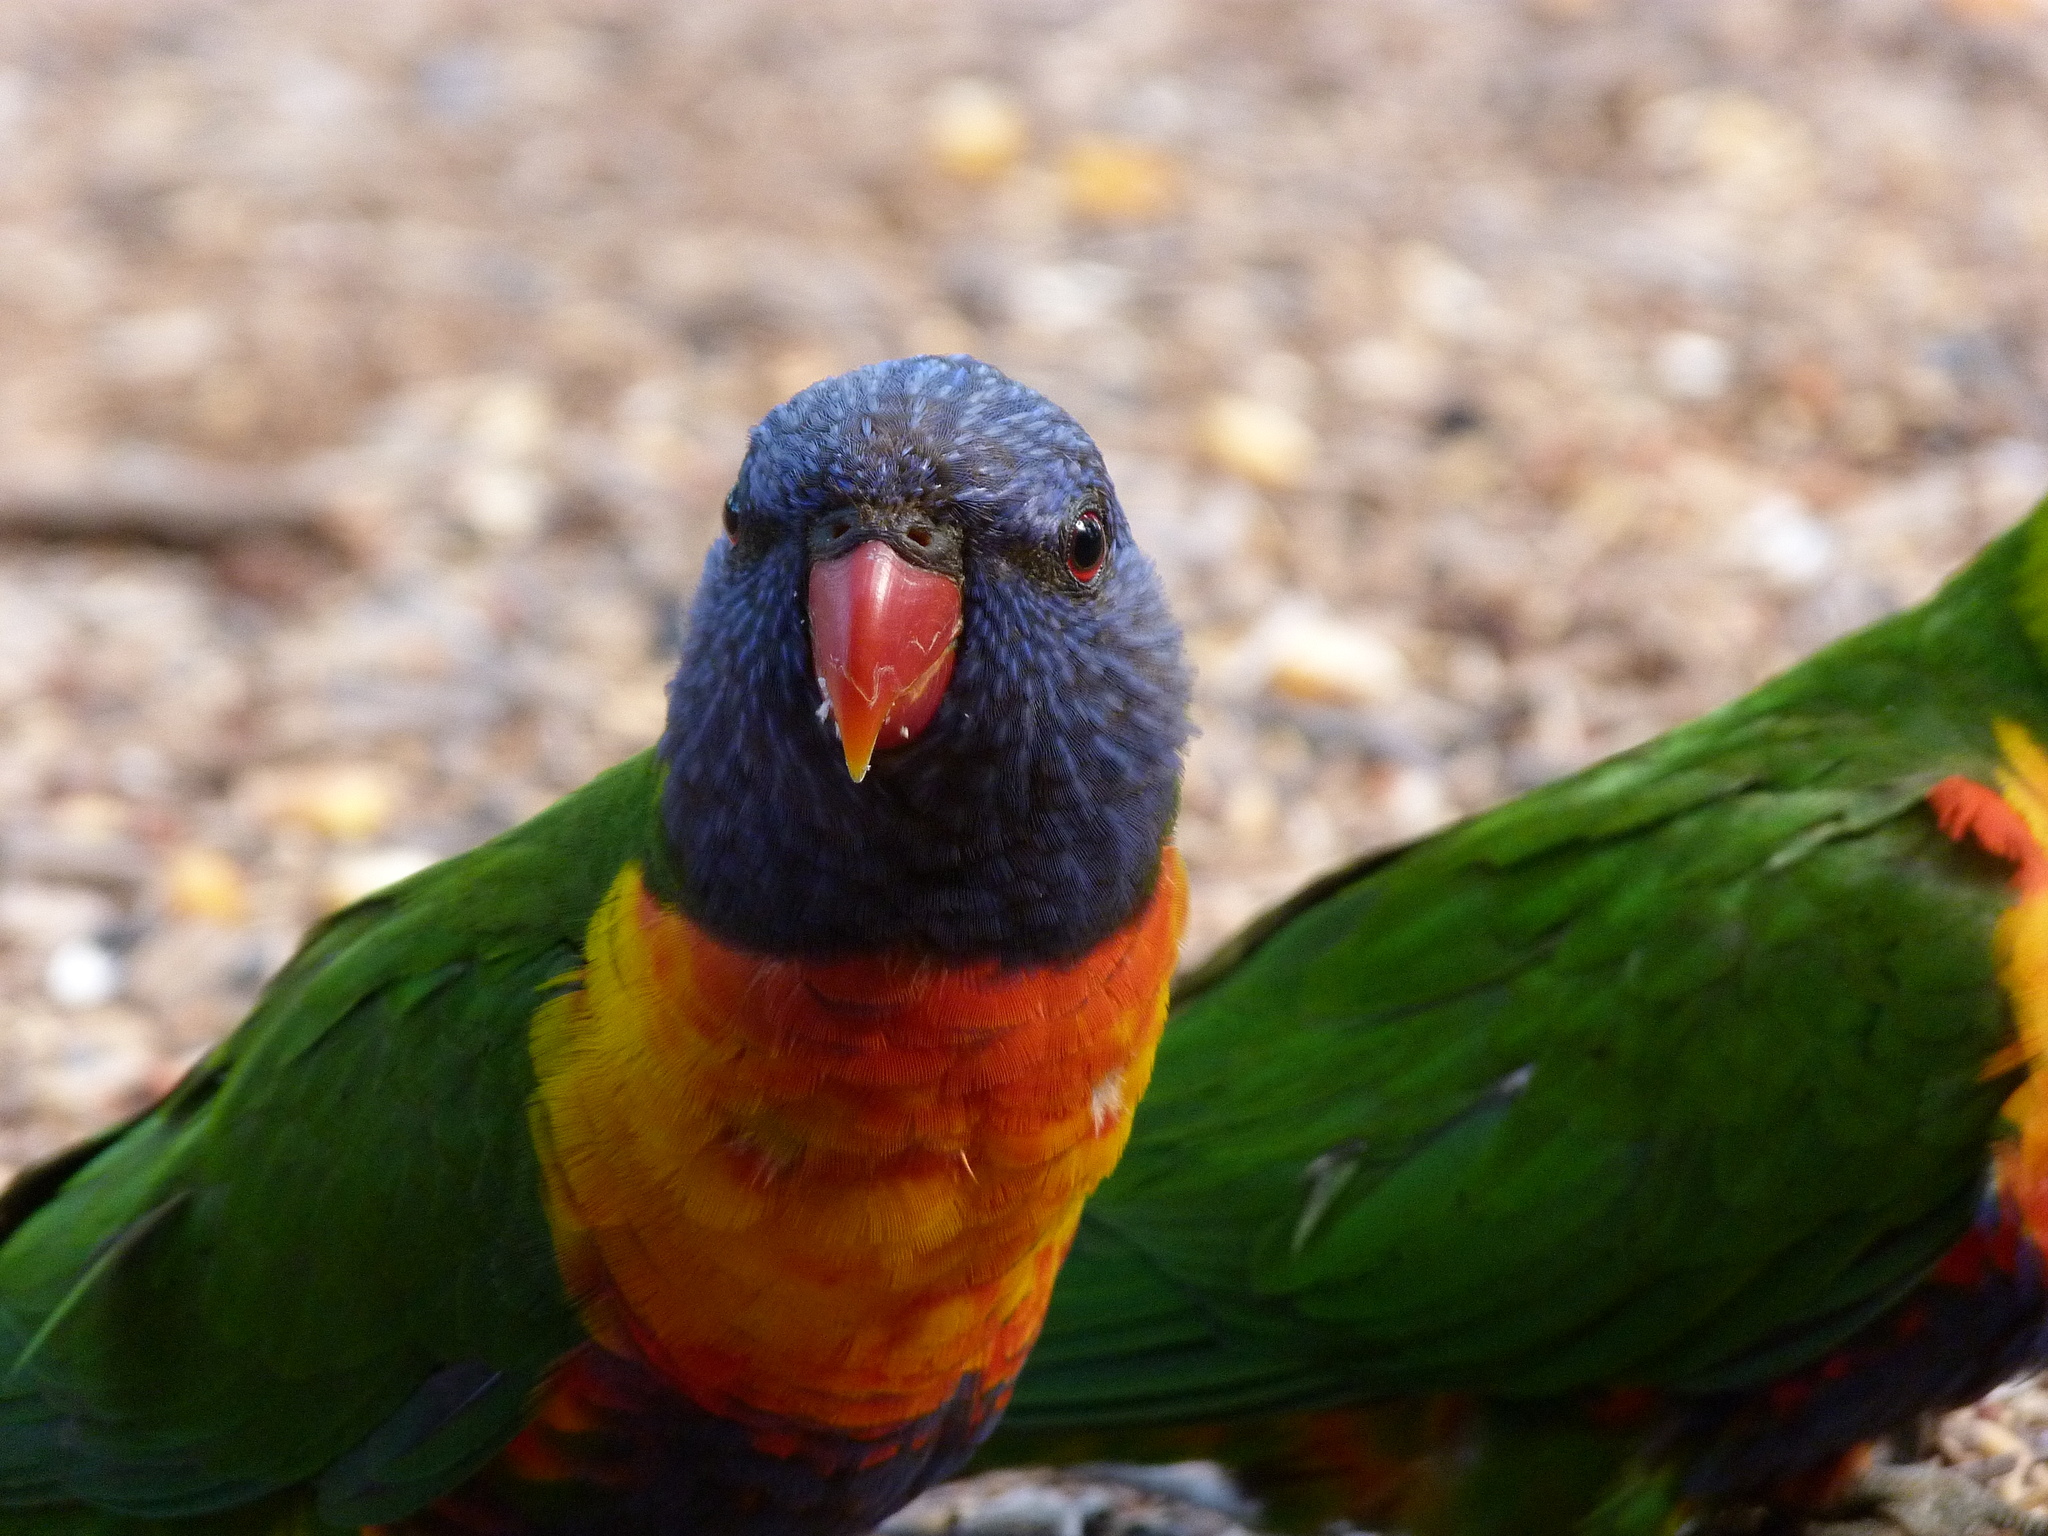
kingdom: Animalia
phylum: Chordata
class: Aves
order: Psittaciformes
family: Psittacidae
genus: Trichoglossus
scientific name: Trichoglossus haematodus
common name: Coconut lorikeet
